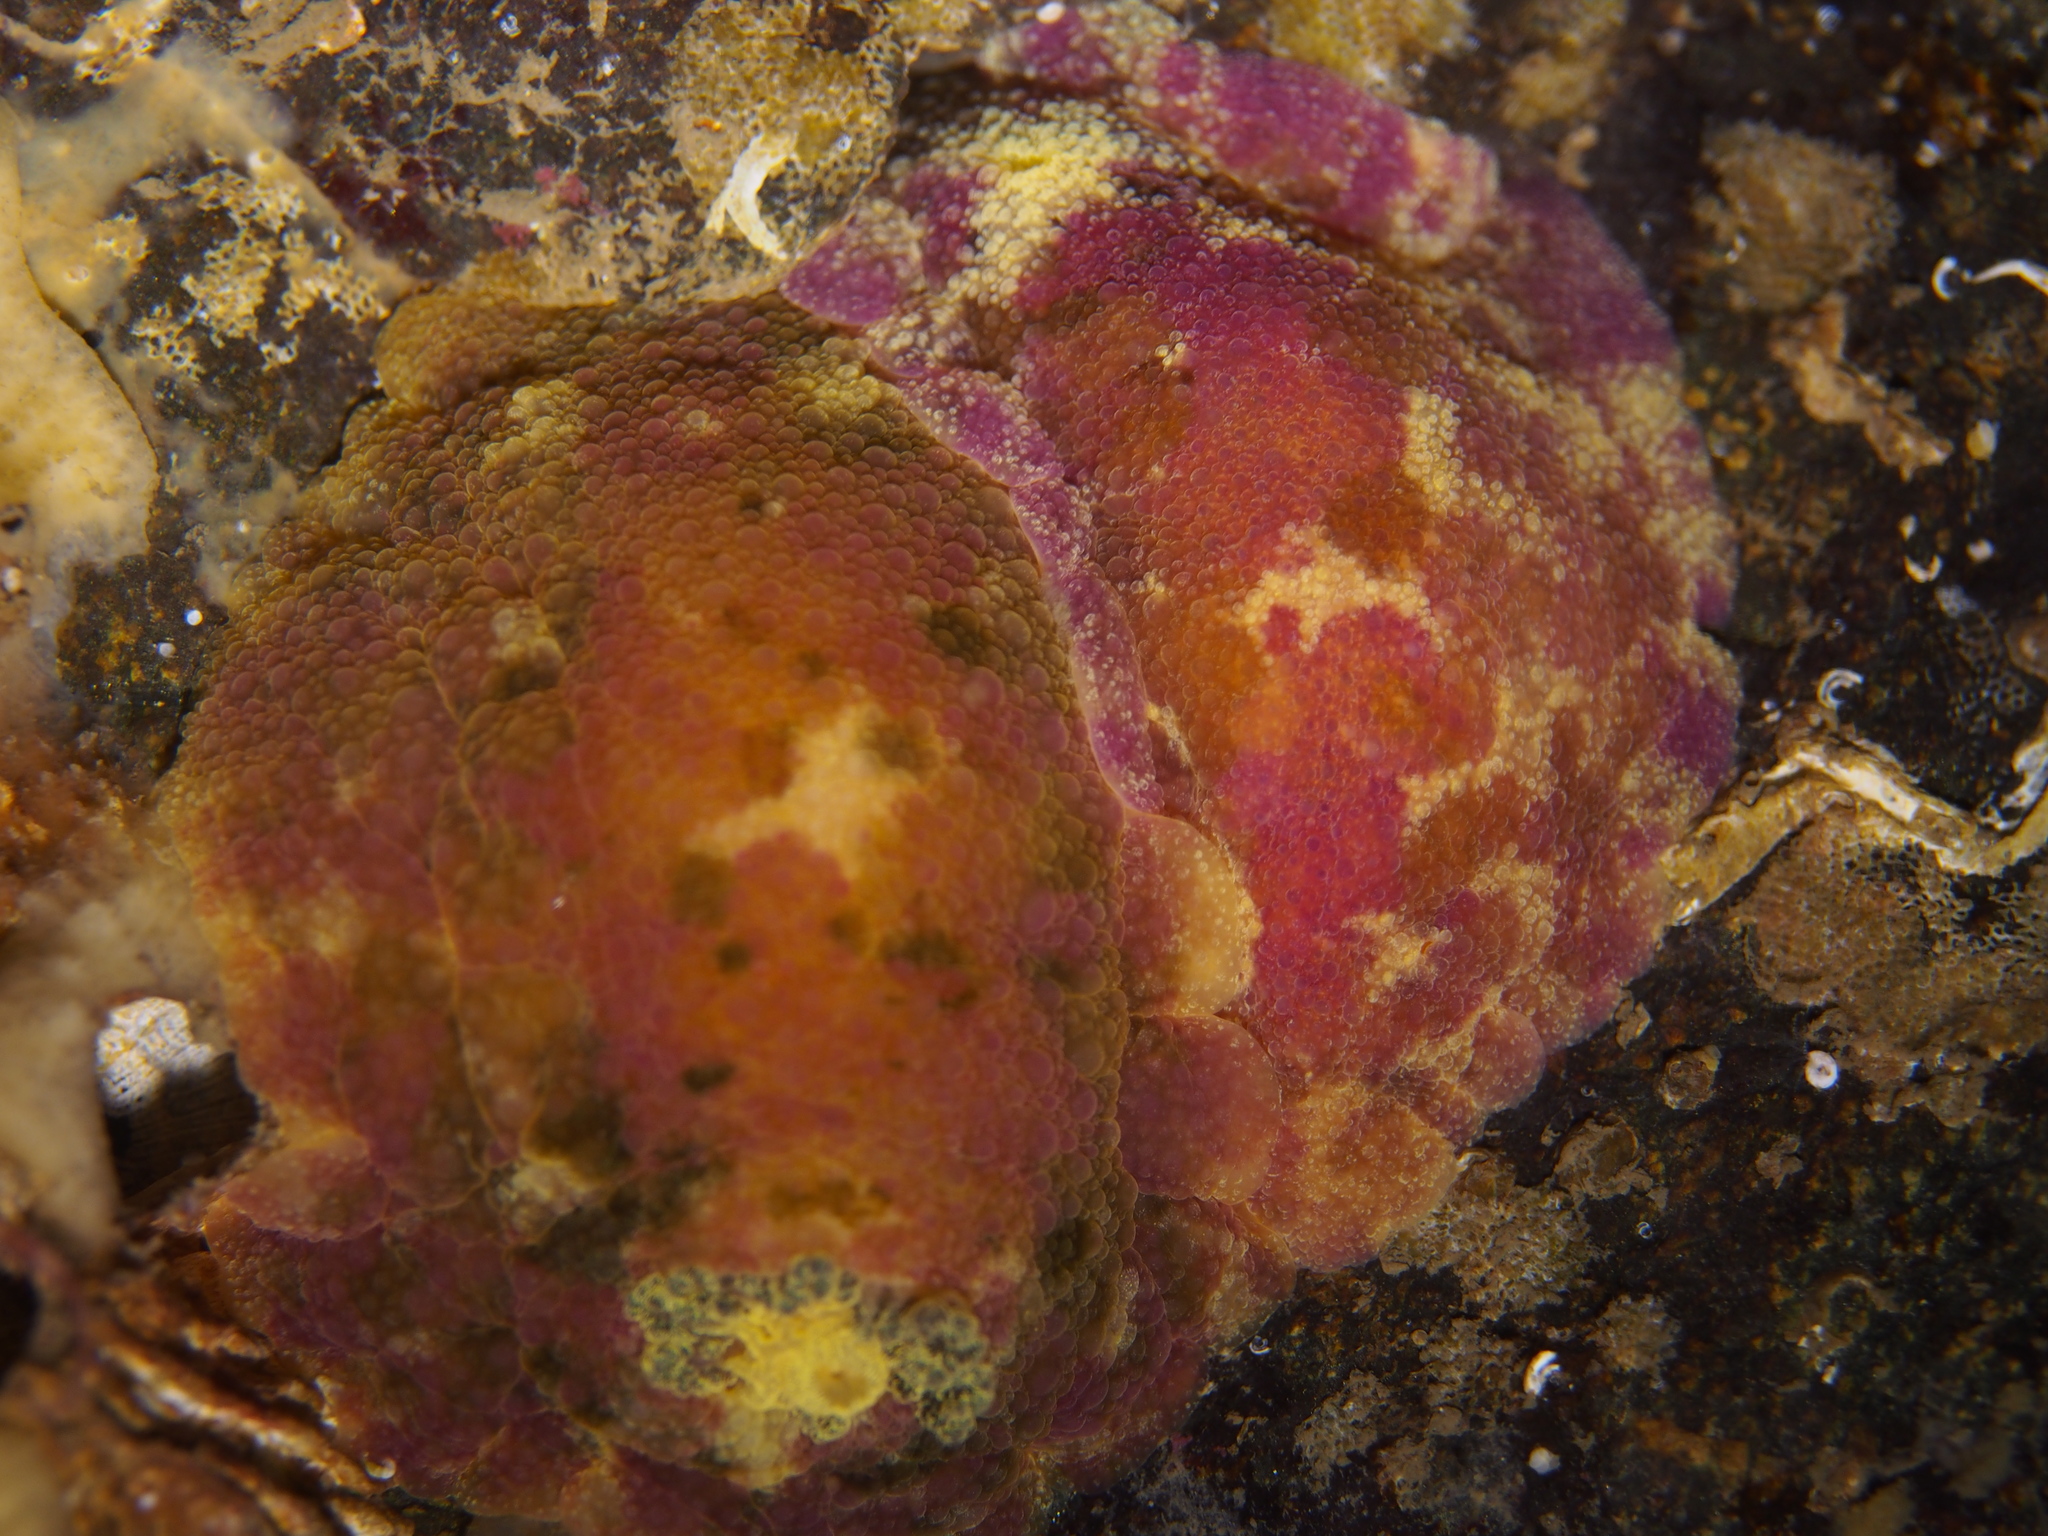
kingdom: Animalia
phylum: Mollusca
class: Gastropoda
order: Nudibranchia
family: Dorididae
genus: Doris
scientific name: Doris pseudoargus
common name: Sea lemon
